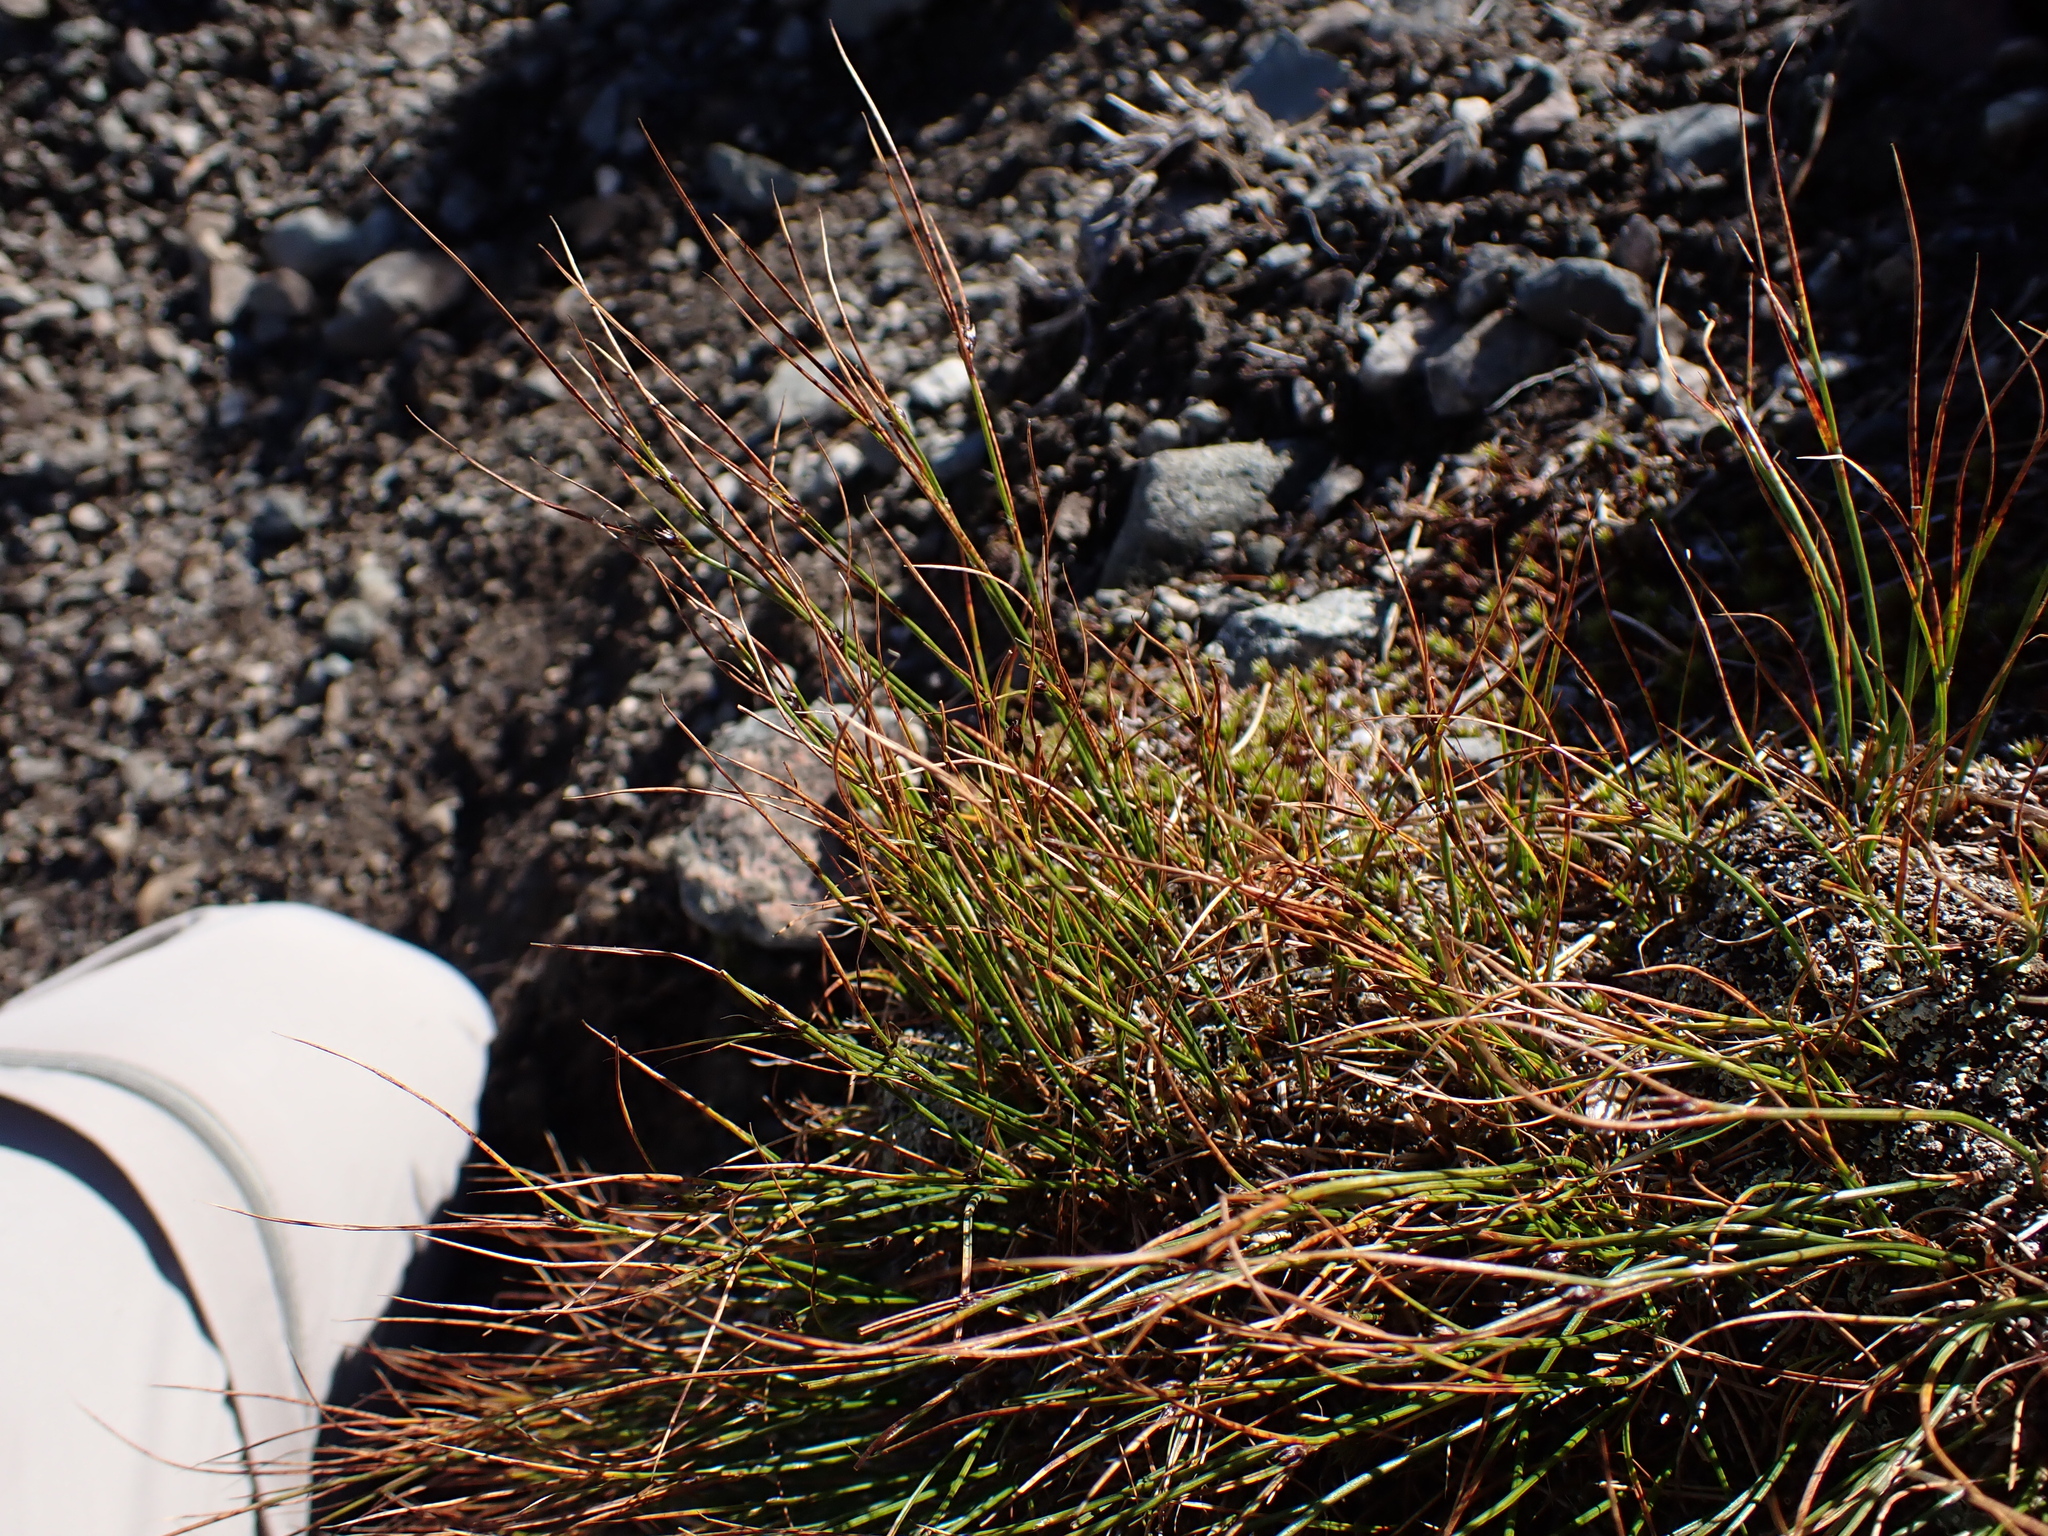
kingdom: Plantae
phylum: Tracheophyta
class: Liliopsida
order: Poales
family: Juncaceae
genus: Oreojuncus
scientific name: Oreojuncus trifidus
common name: Highland rush
